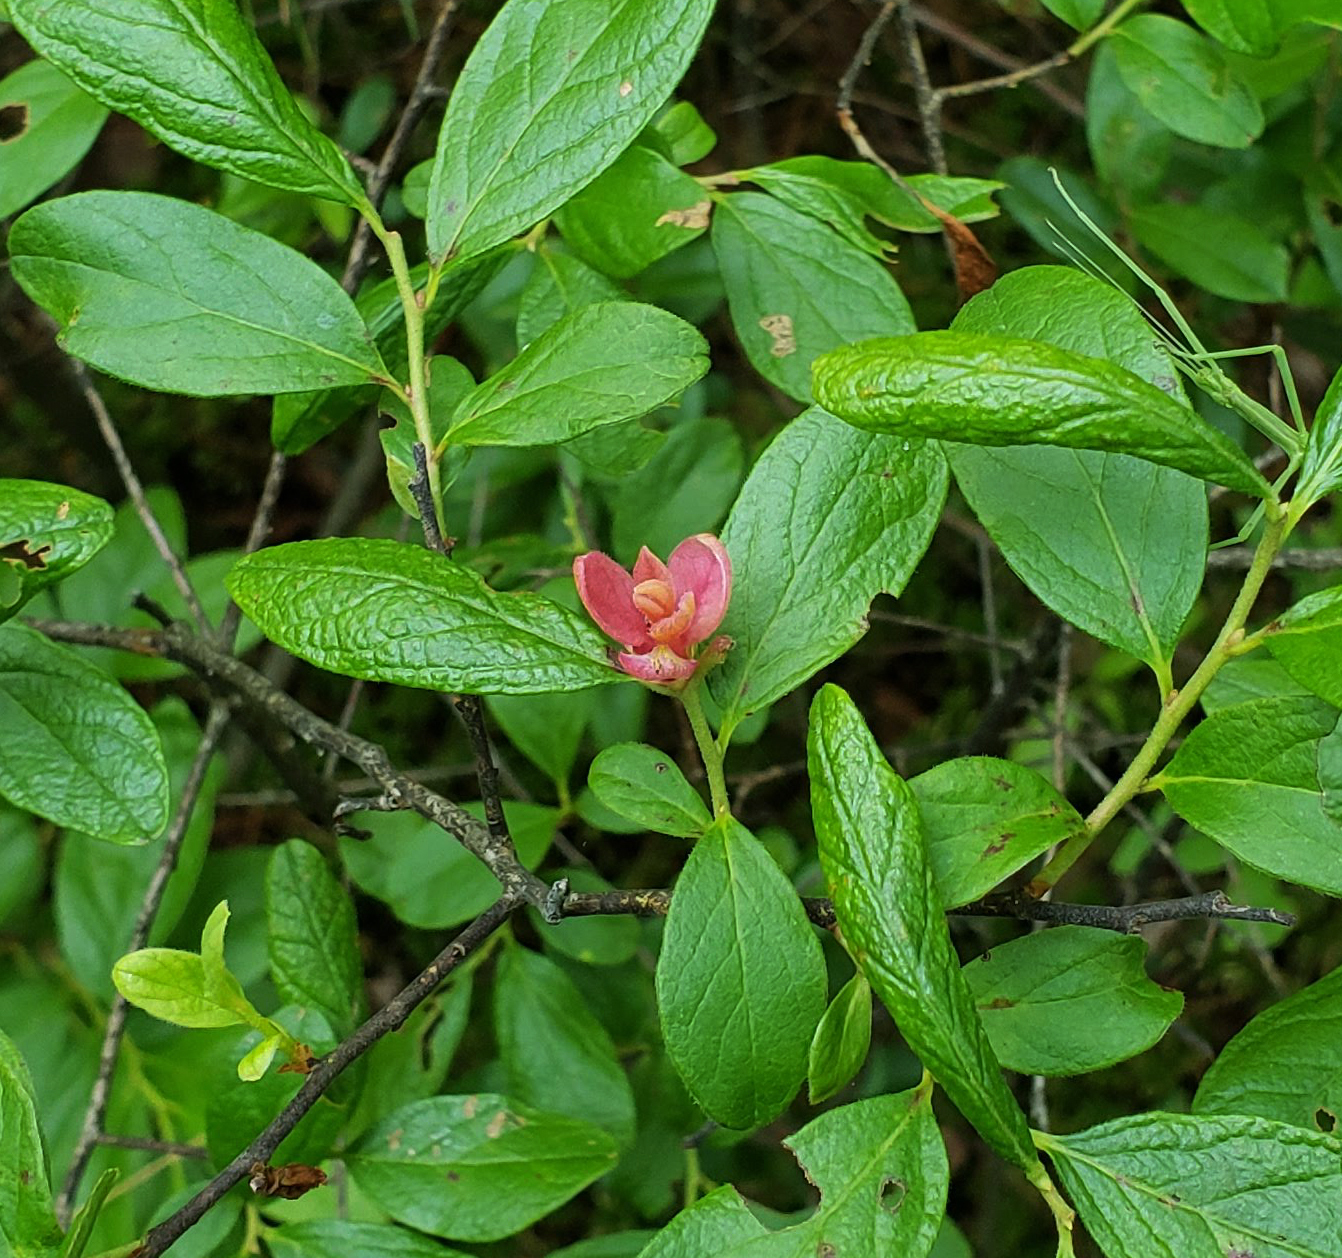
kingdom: Fungi
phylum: Basidiomycota
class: Exobasidiomycetes
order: Exobasidiales
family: Exobasidiaceae
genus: Exobasidium
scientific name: Exobasidium vaccinii
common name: Cowberry redleaf
